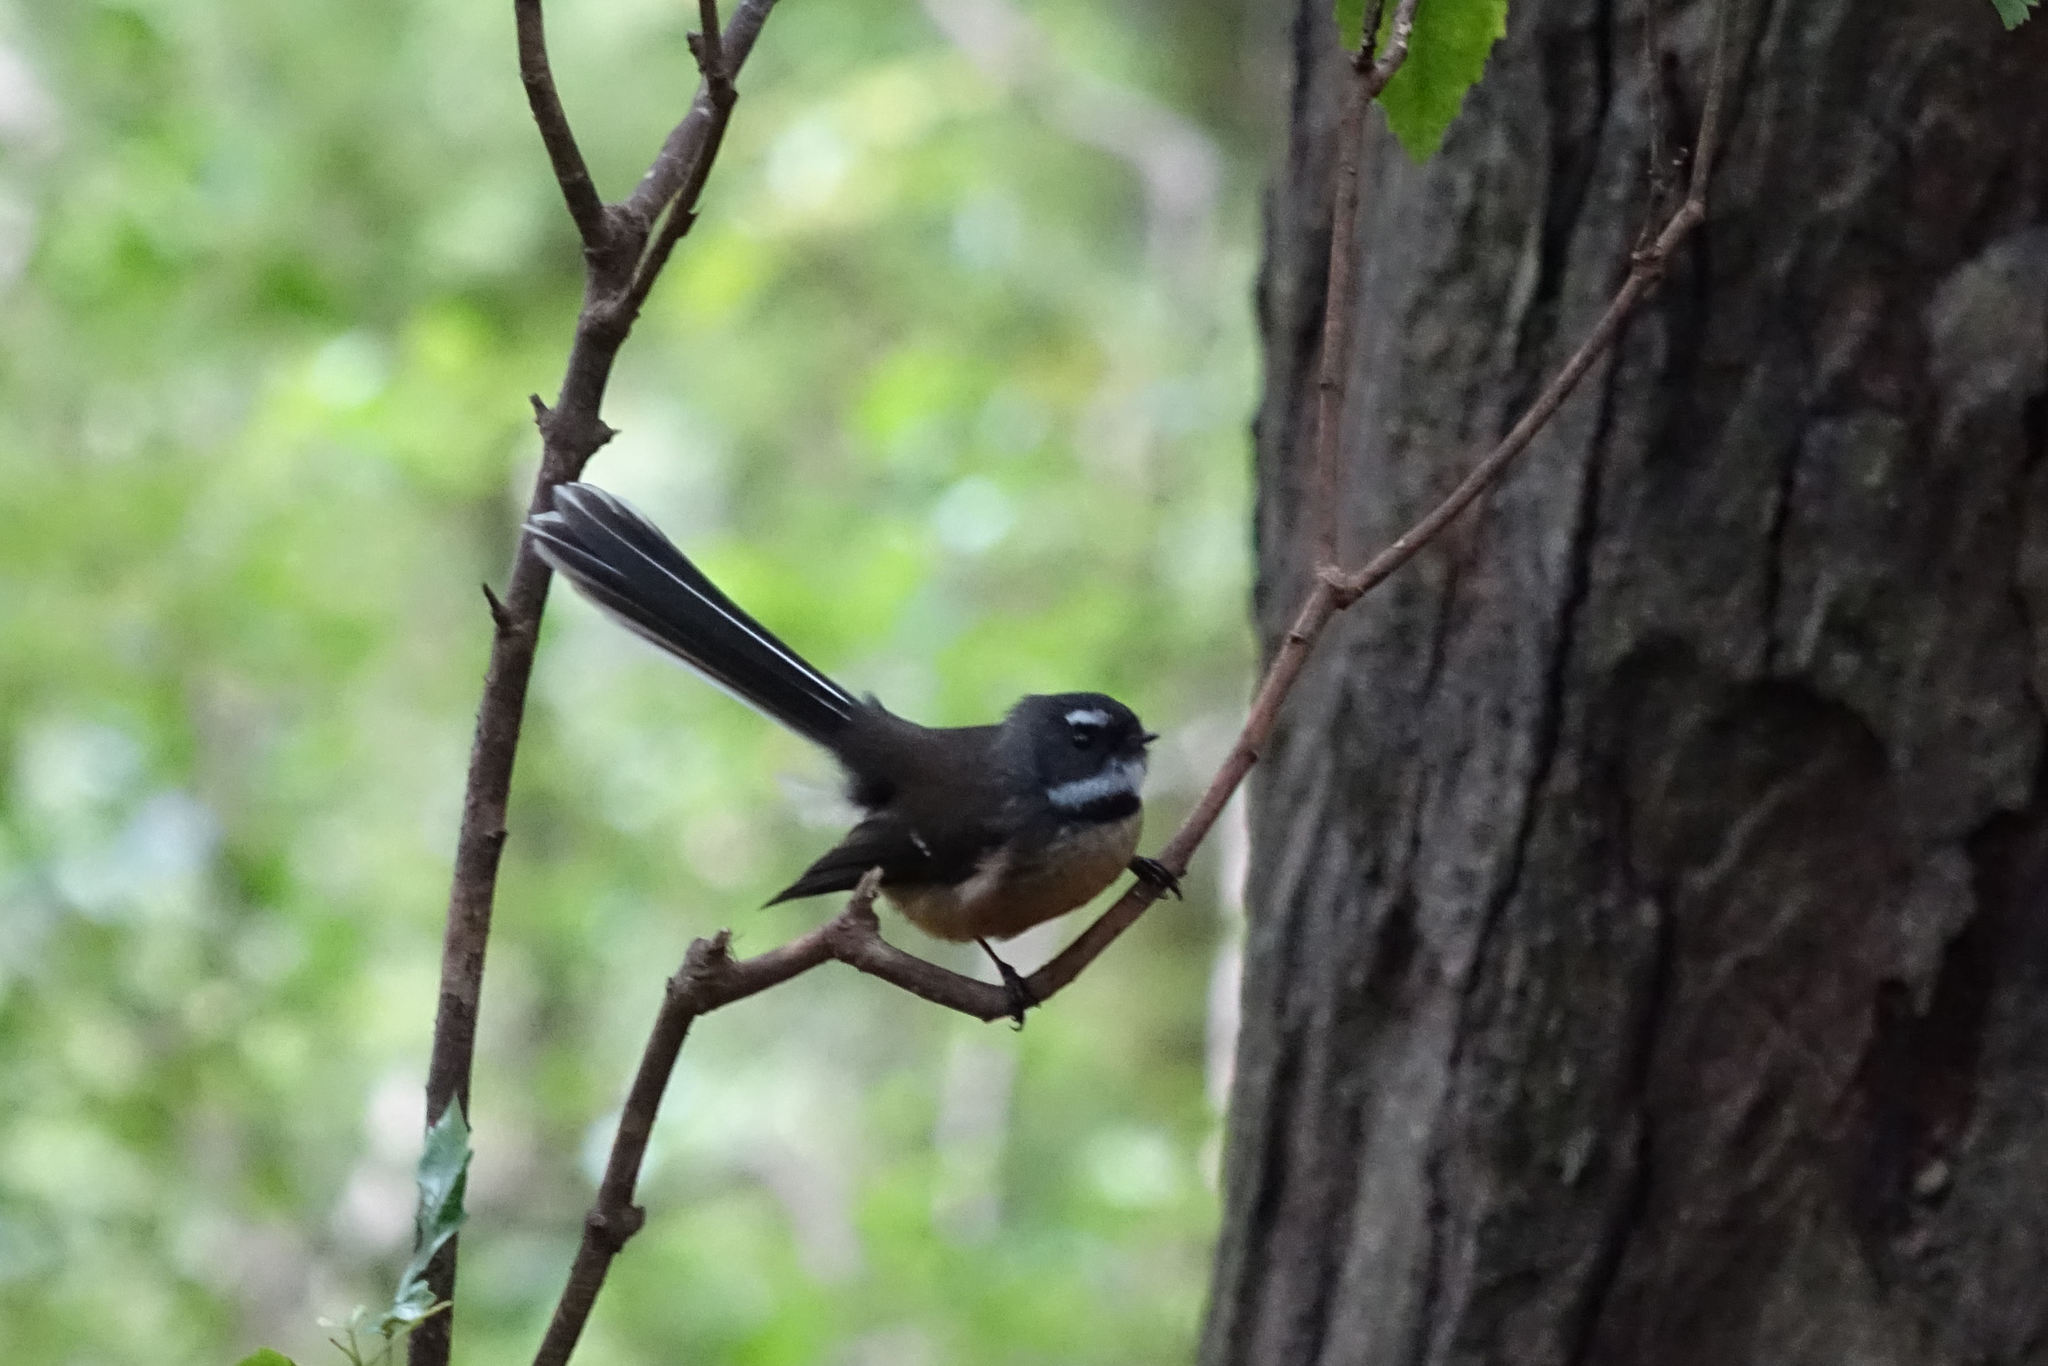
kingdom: Animalia
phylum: Chordata
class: Aves
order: Passeriformes
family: Rhipiduridae
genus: Rhipidura
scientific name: Rhipidura fuliginosa
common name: New zealand fantail
